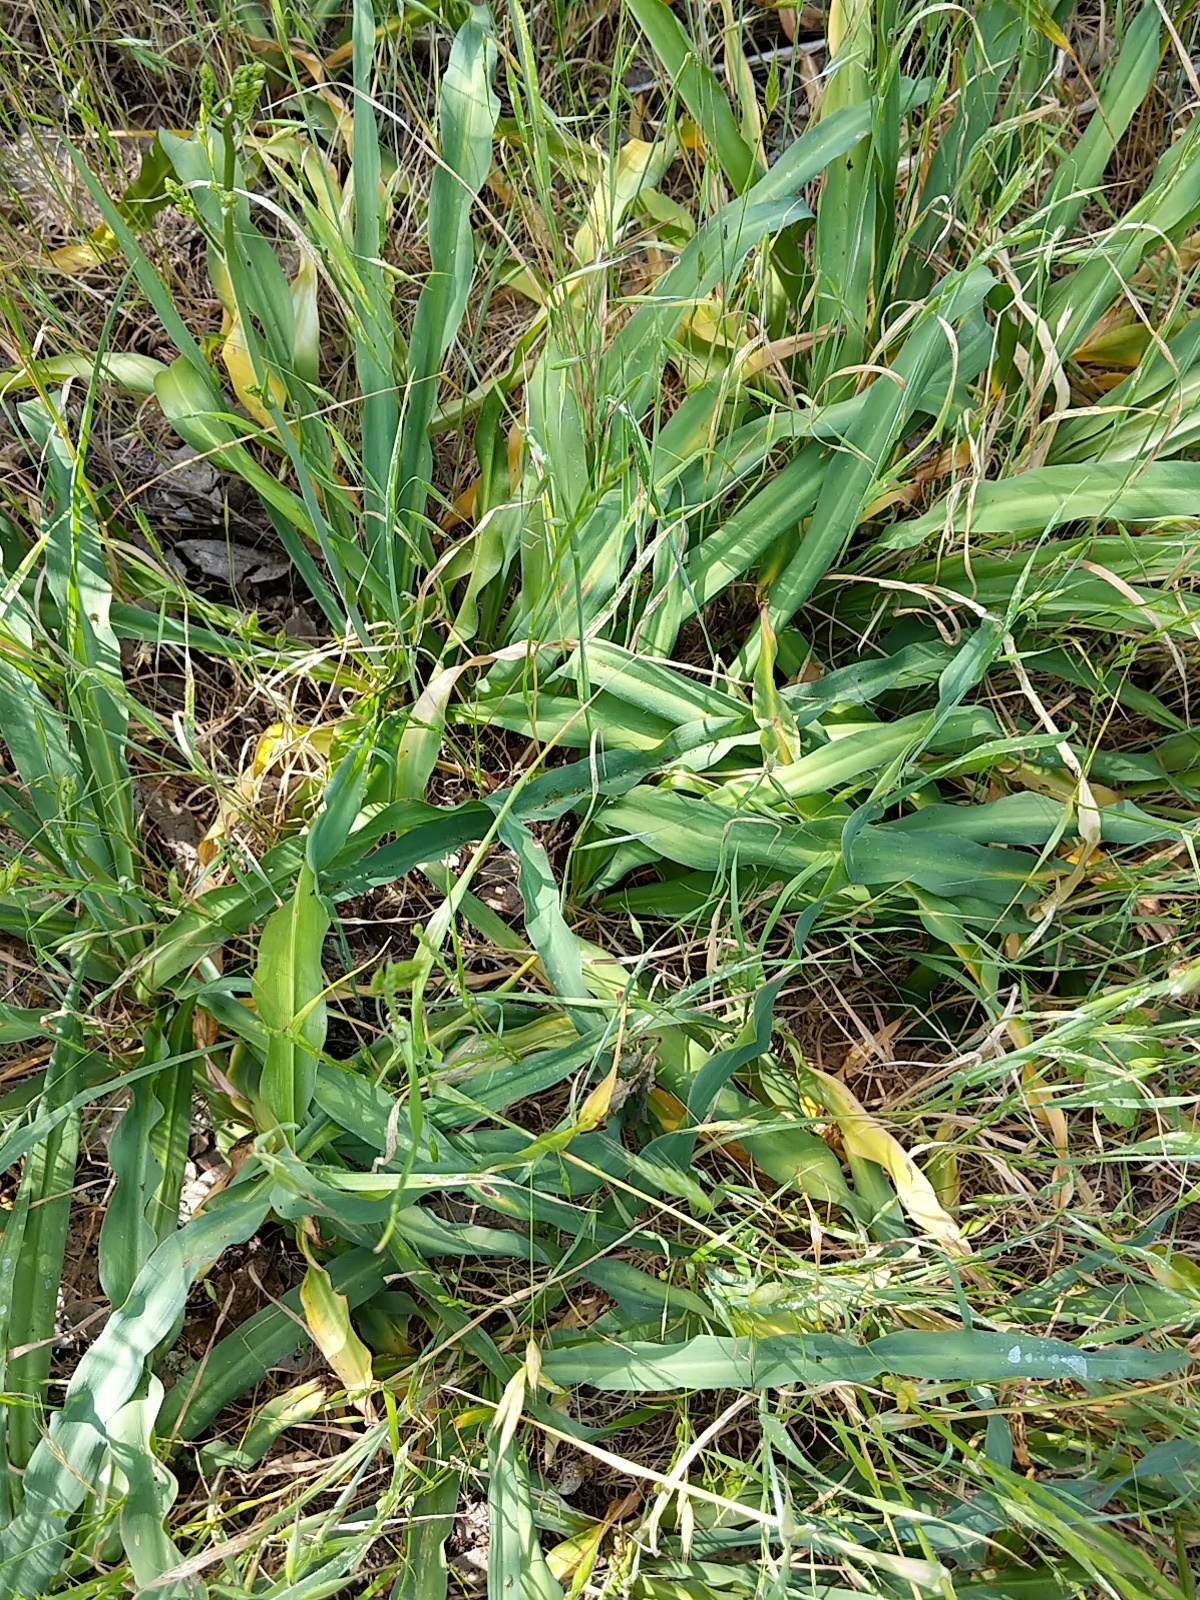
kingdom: Plantae
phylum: Tracheophyta
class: Liliopsida
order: Asparagales
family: Asparagaceae
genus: Chlorogalum
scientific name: Chlorogalum pomeridianum
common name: Amole
